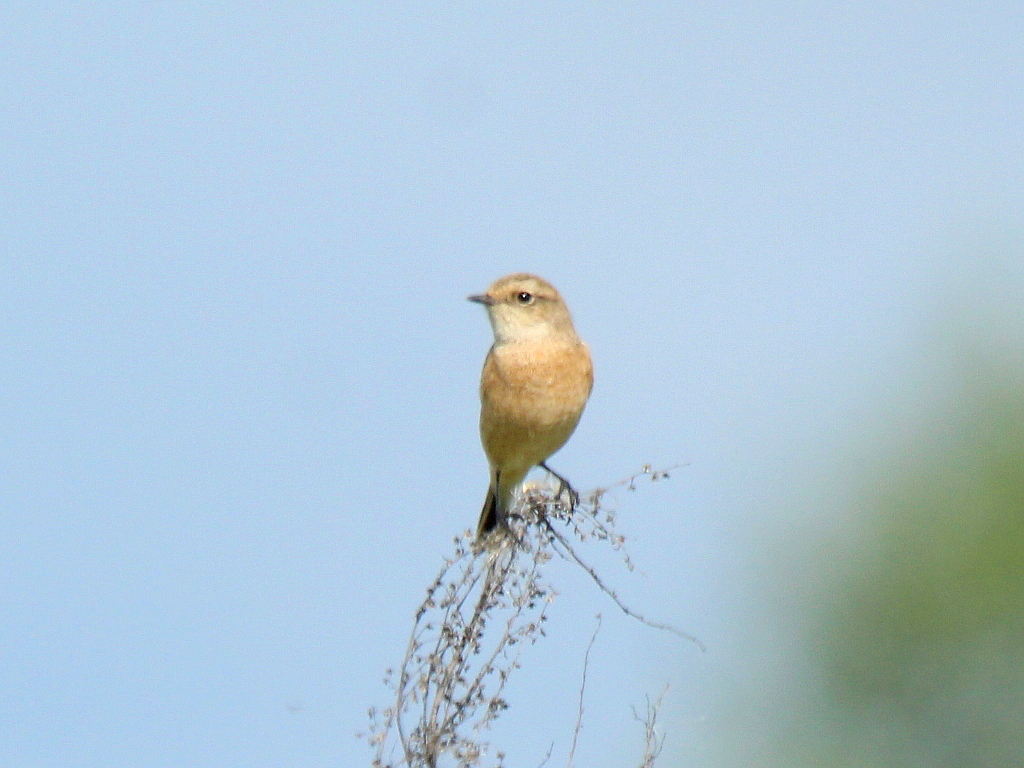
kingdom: Animalia
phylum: Chordata
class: Aves
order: Passeriformes
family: Muscicapidae
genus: Saxicola
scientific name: Saxicola maurus
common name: Siberian stonechat
